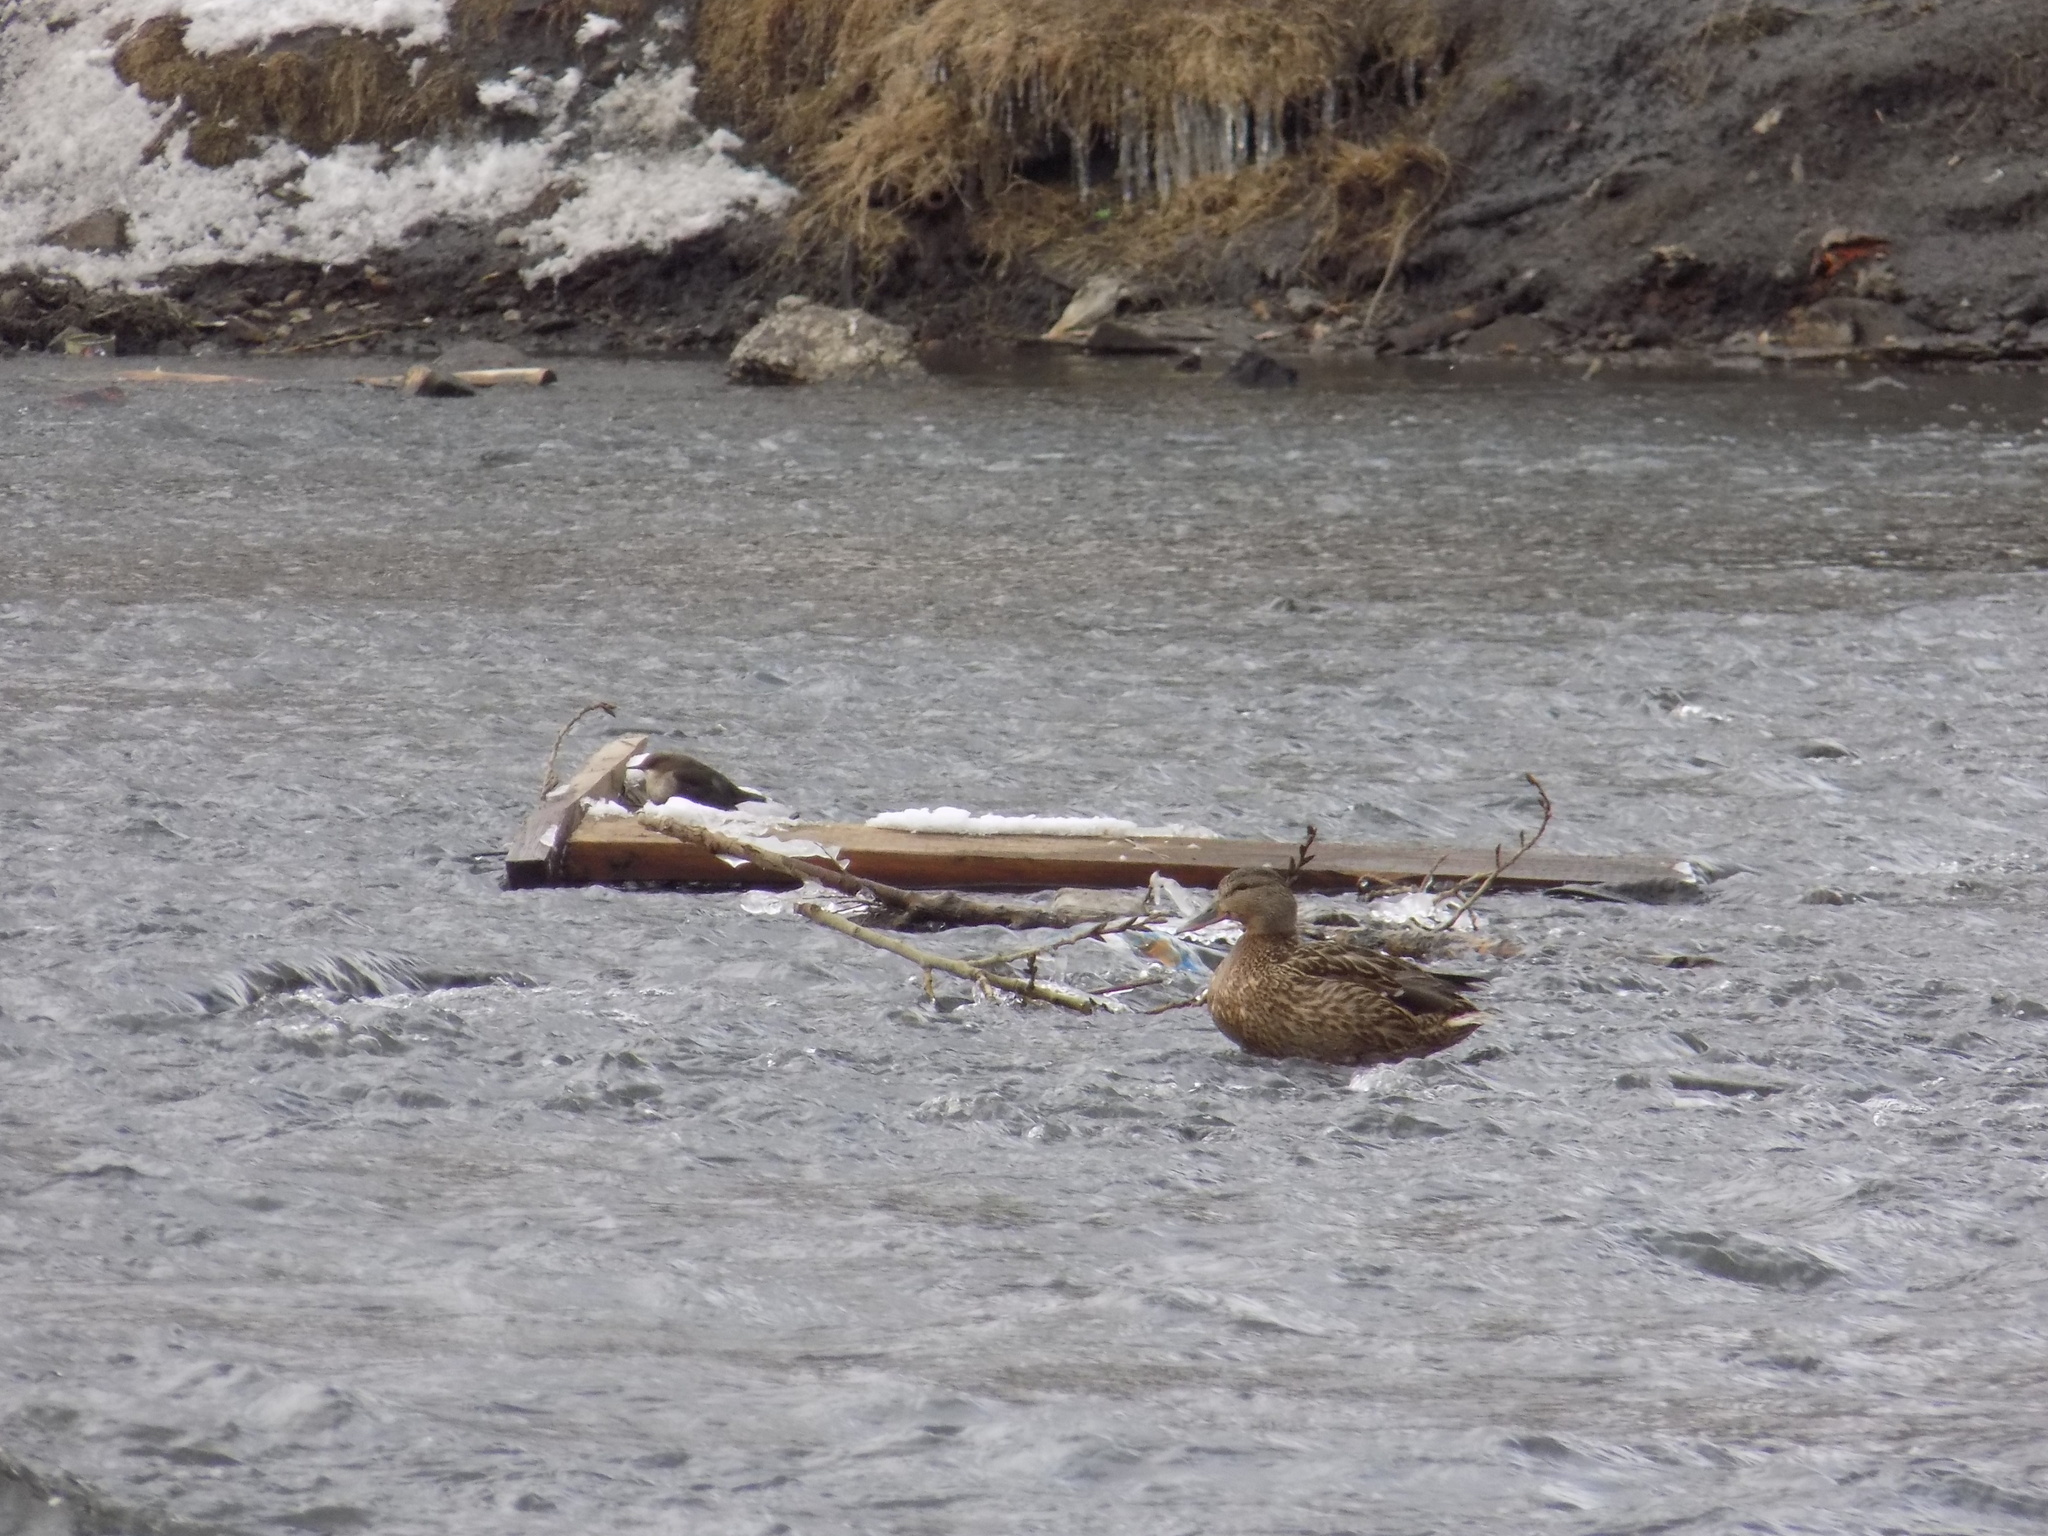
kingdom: Animalia
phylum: Chordata
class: Aves
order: Passeriformes
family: Cinclidae
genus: Cinclus
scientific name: Cinclus cinclus
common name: White-throated dipper
